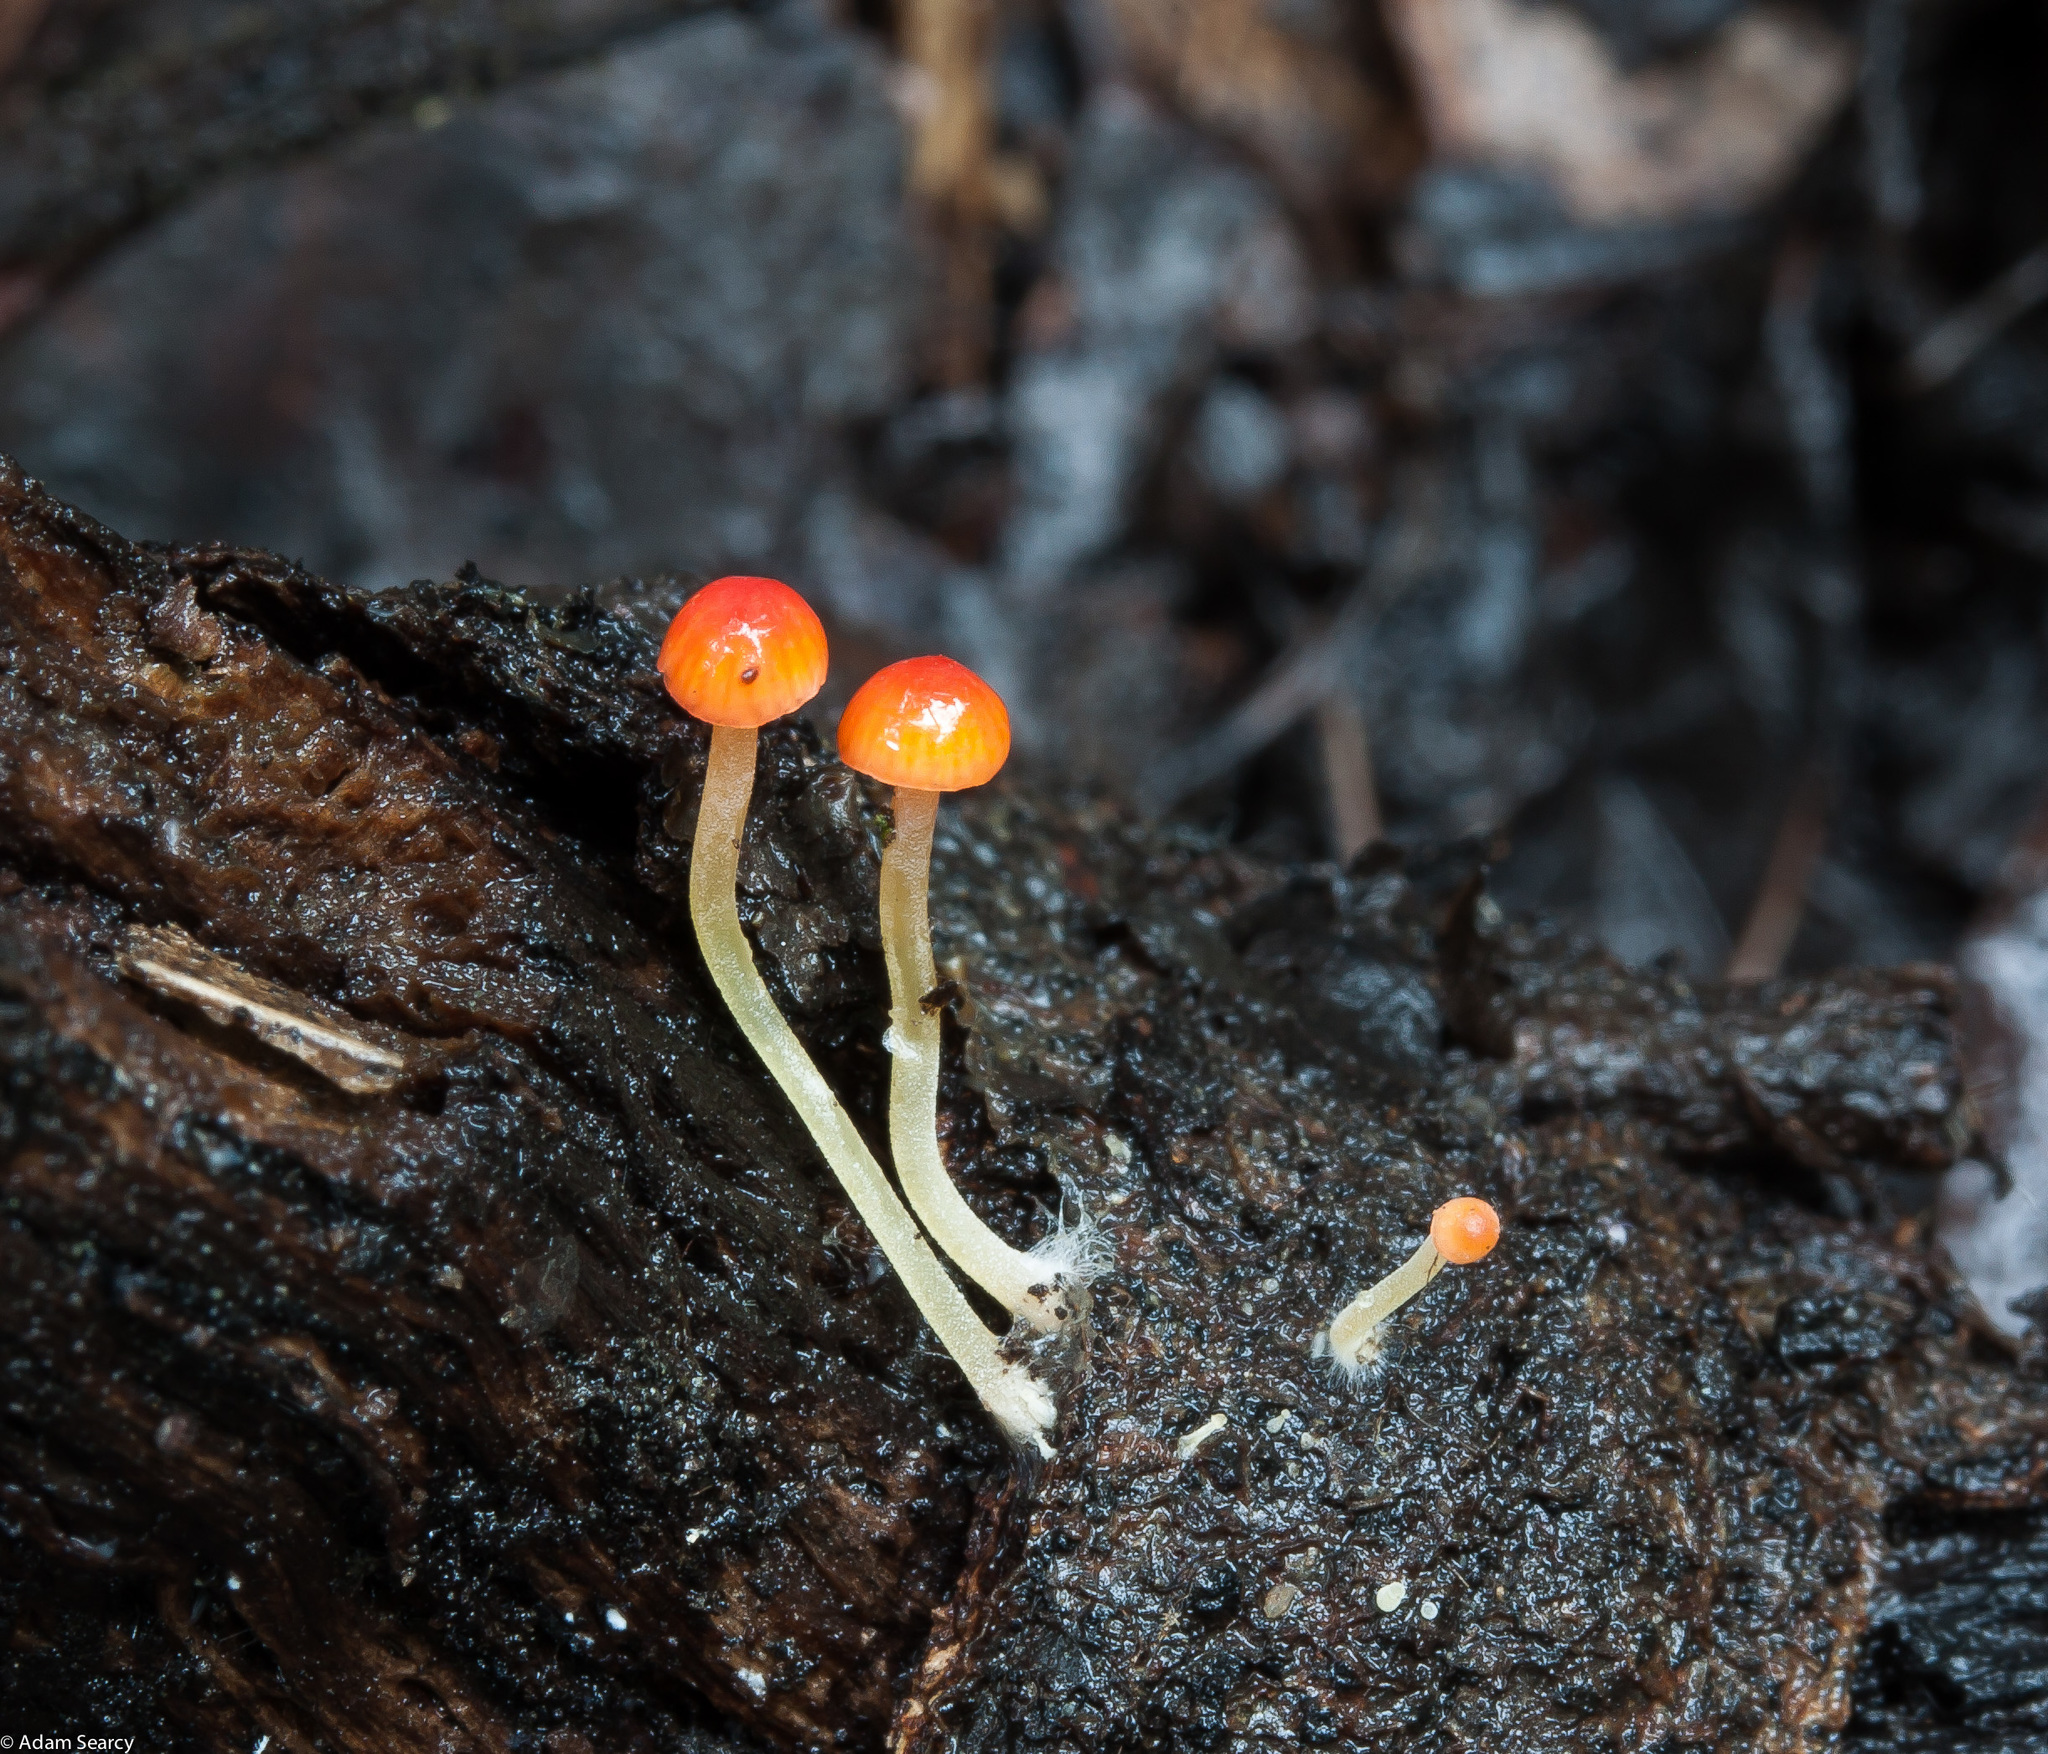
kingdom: Fungi
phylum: Basidiomycota
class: Agaricomycetes
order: Agaricales
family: Mycenaceae
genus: Mycena
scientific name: Mycena acicula
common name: Orange bonnet
